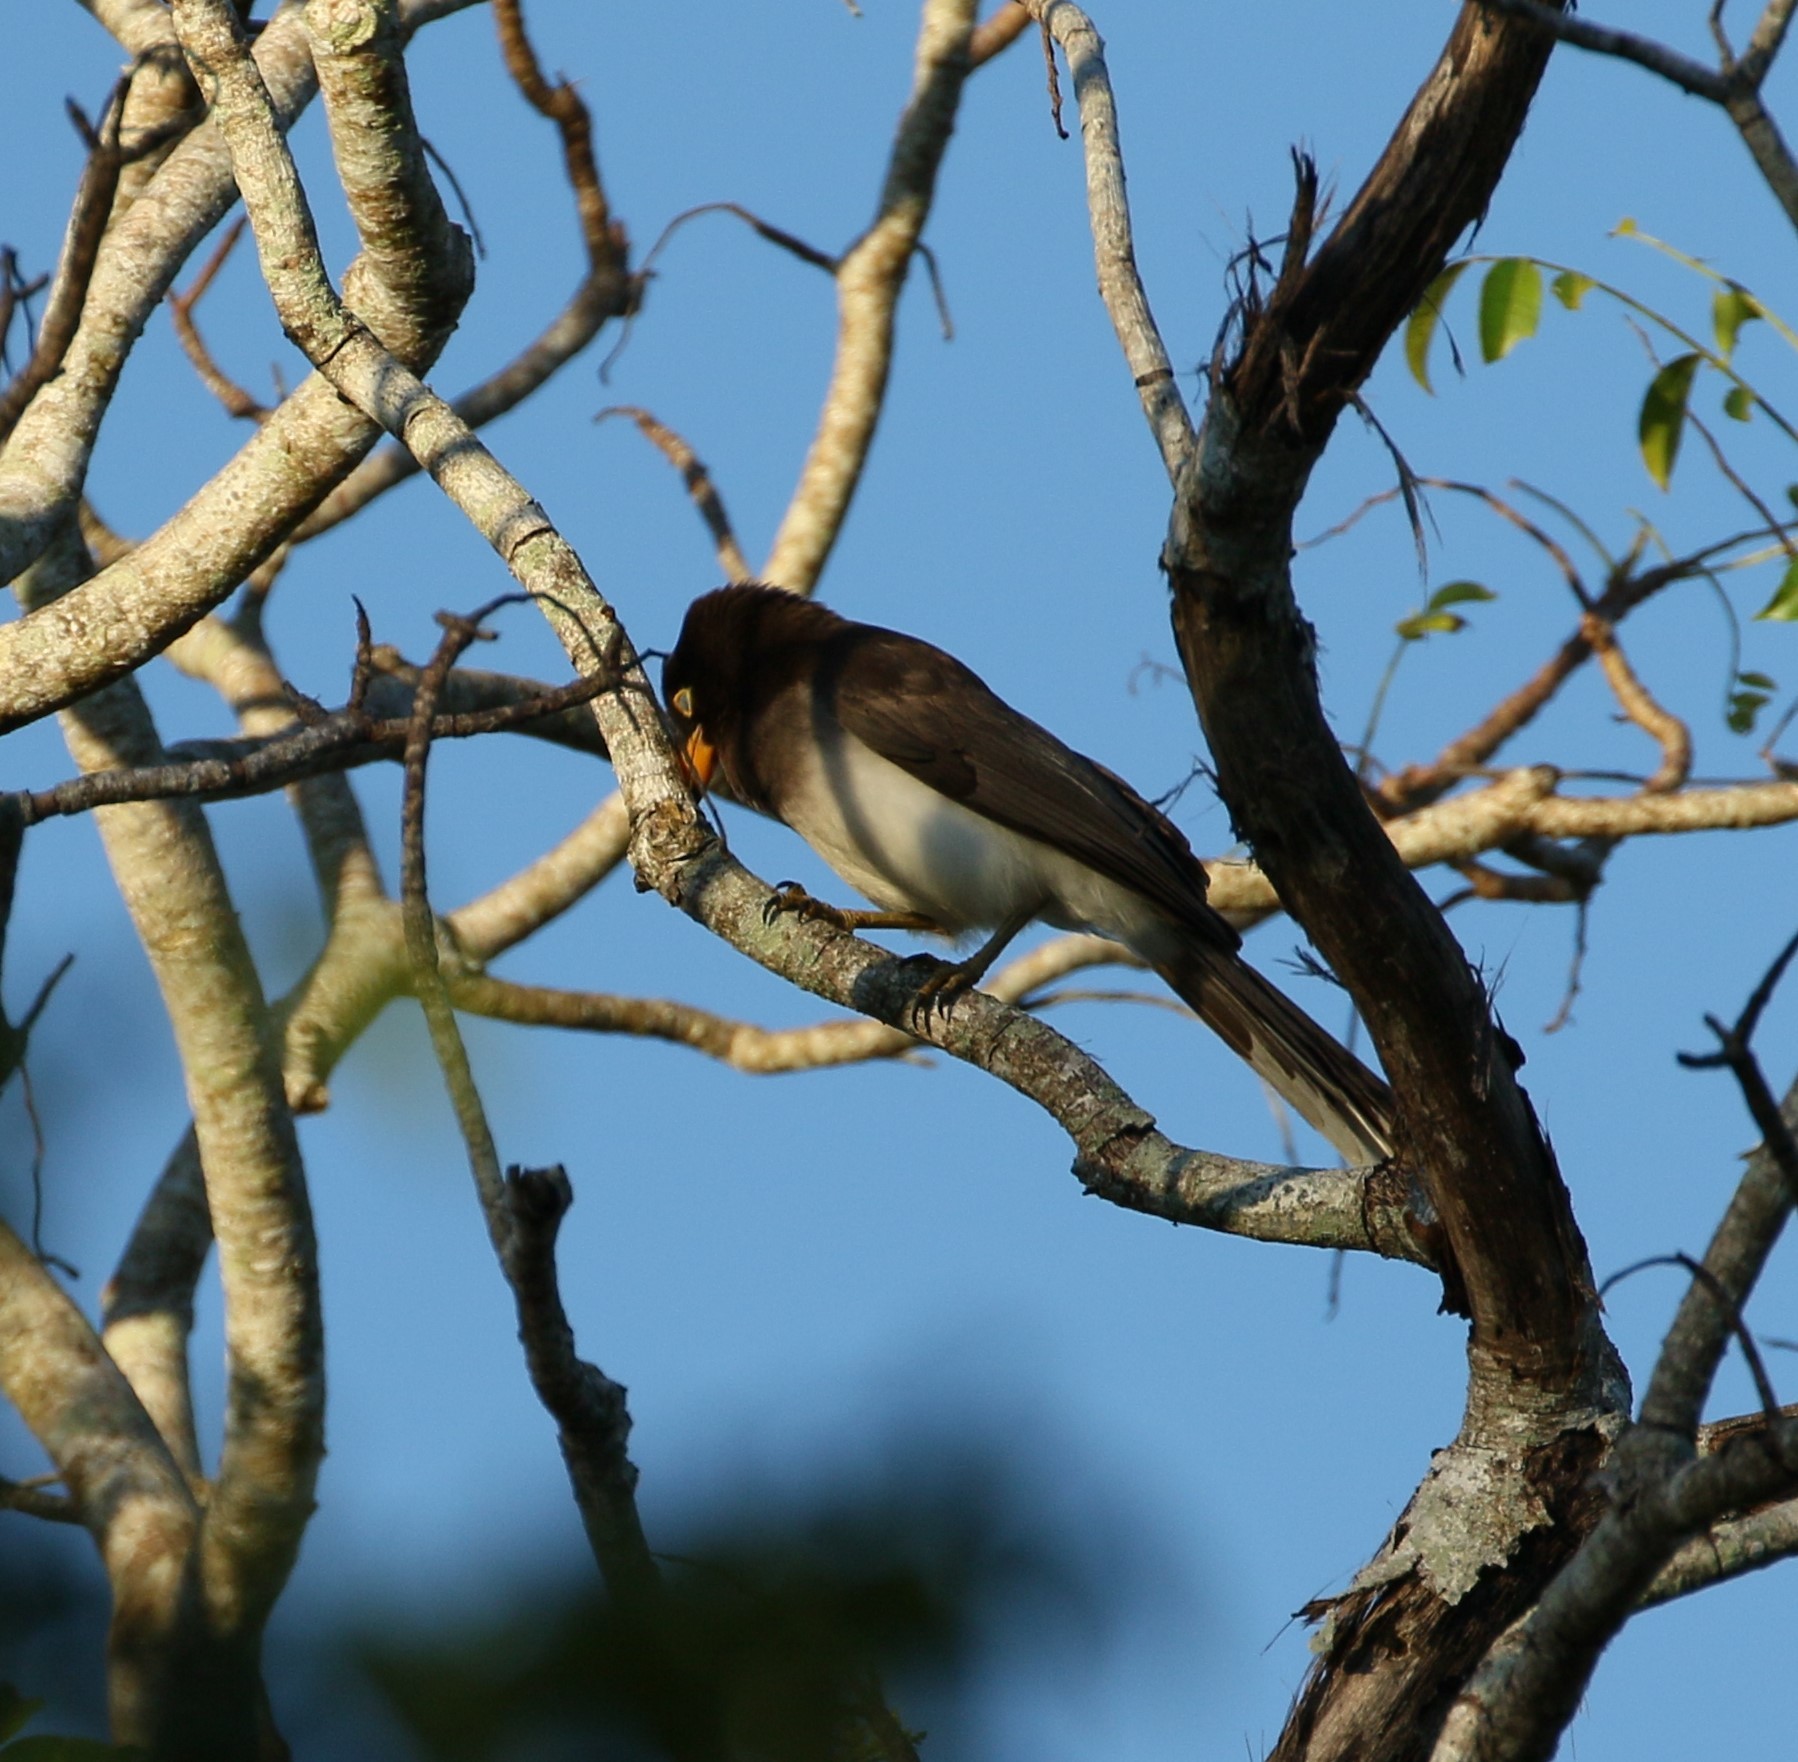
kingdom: Animalia
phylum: Chordata
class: Aves
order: Passeriformes
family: Corvidae
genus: Psilorhinus
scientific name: Psilorhinus morio
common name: Brown jay
